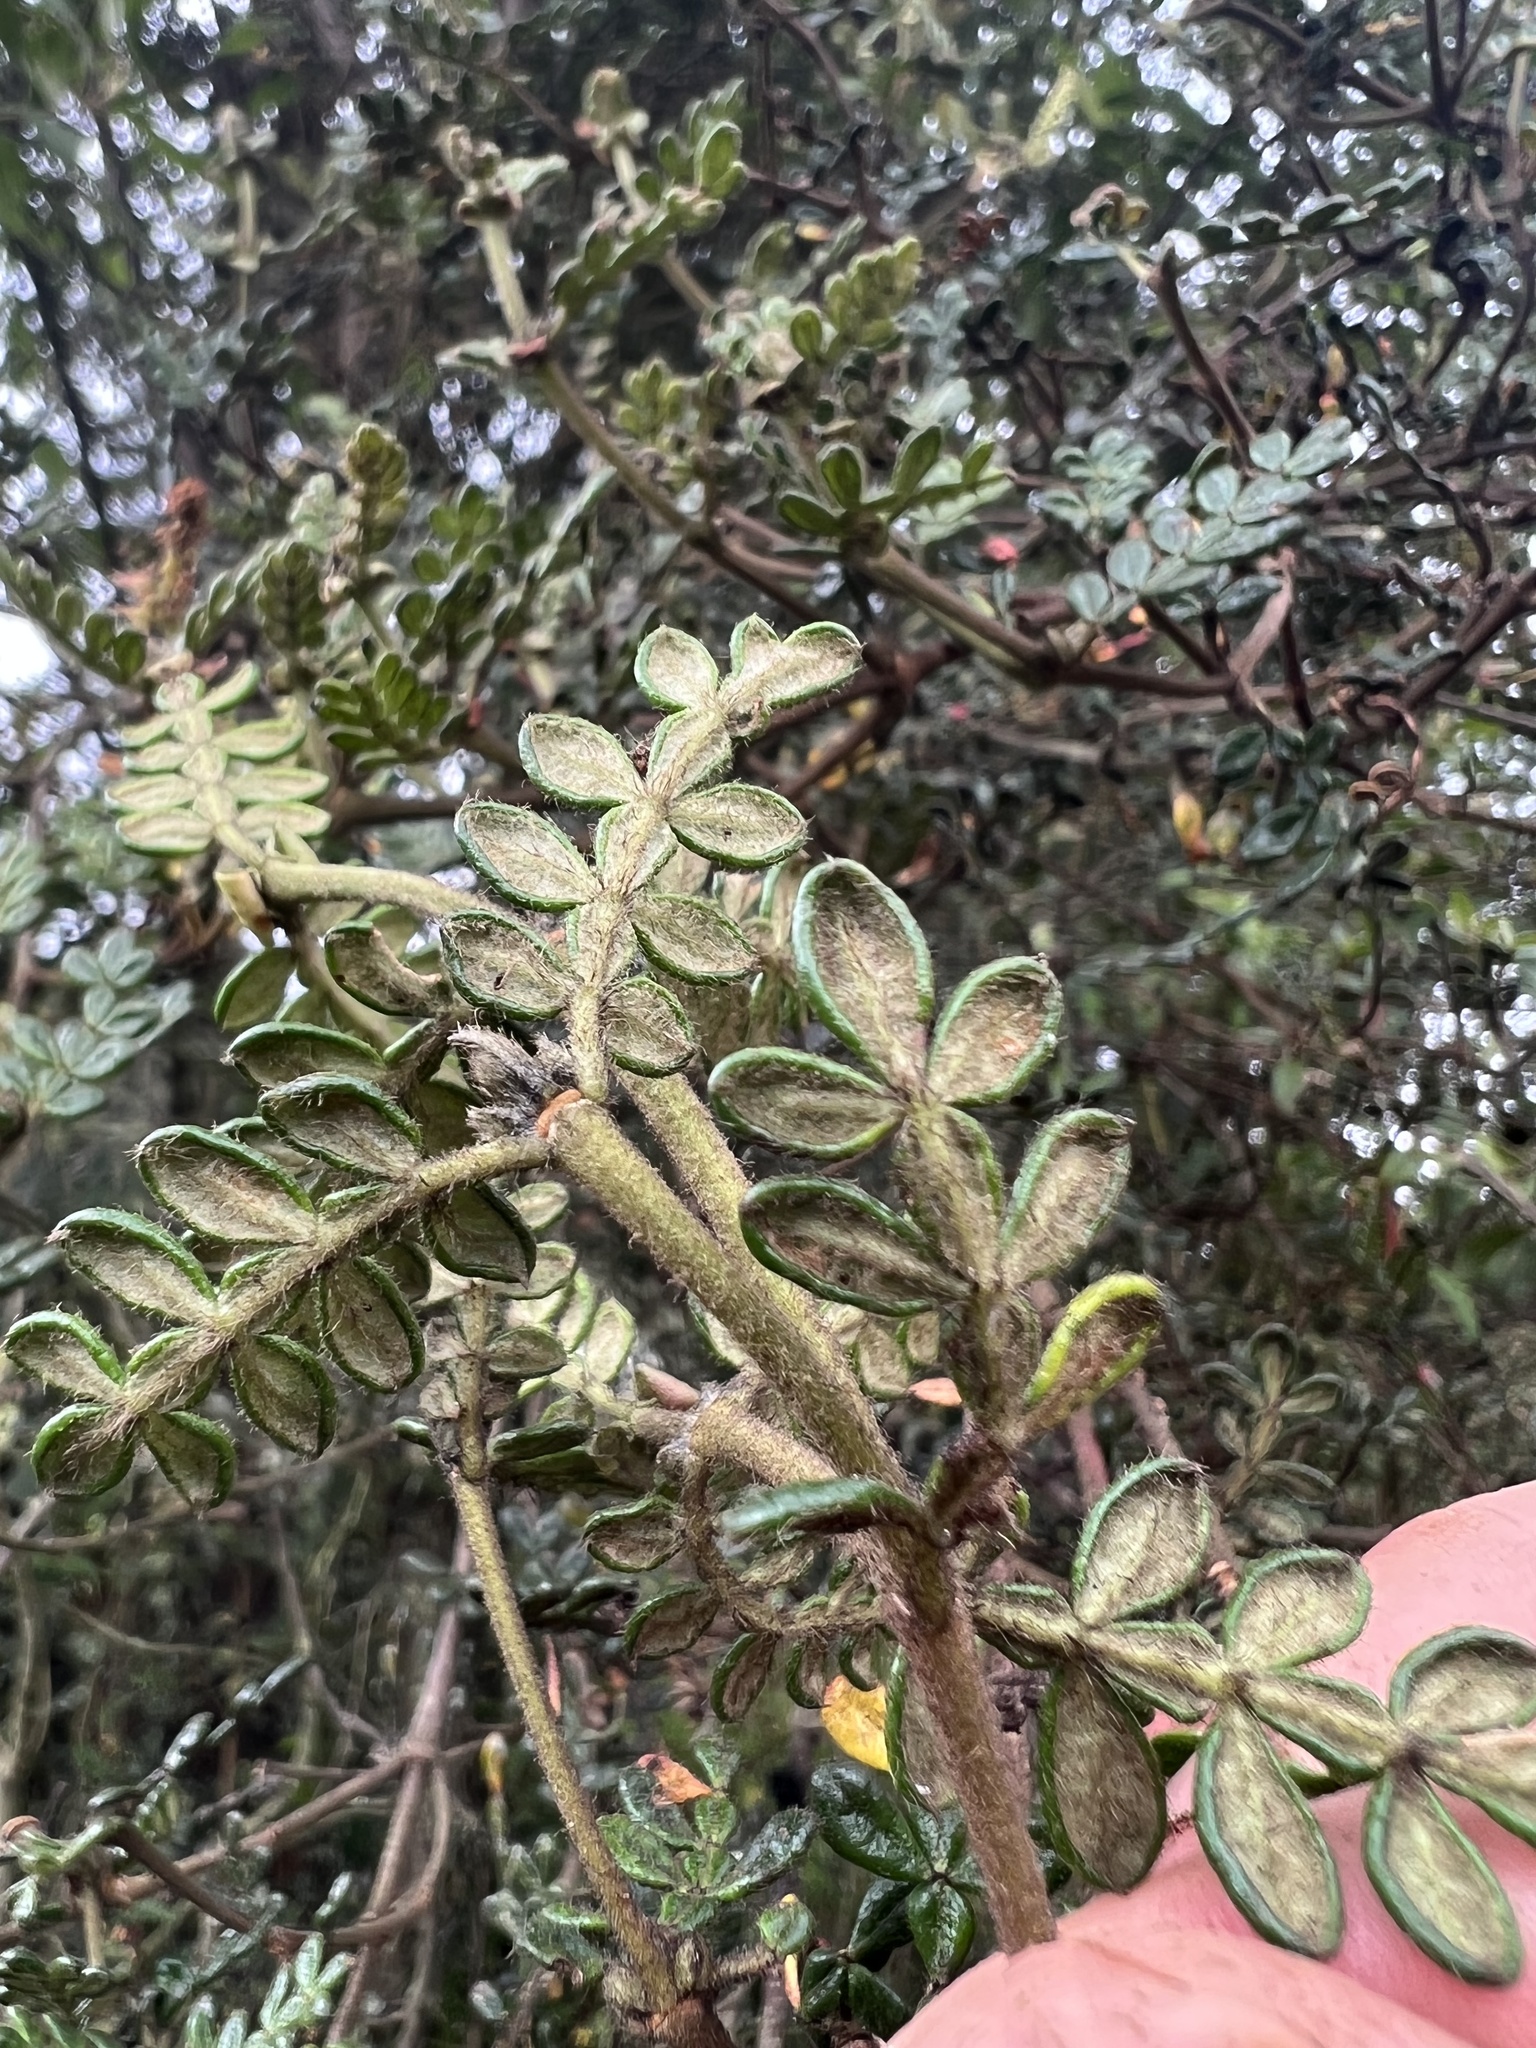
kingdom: Plantae
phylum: Tracheophyta
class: Magnoliopsida
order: Oxalidales
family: Cunoniaceae
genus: Weinmannia
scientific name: Weinmannia tomentosa
